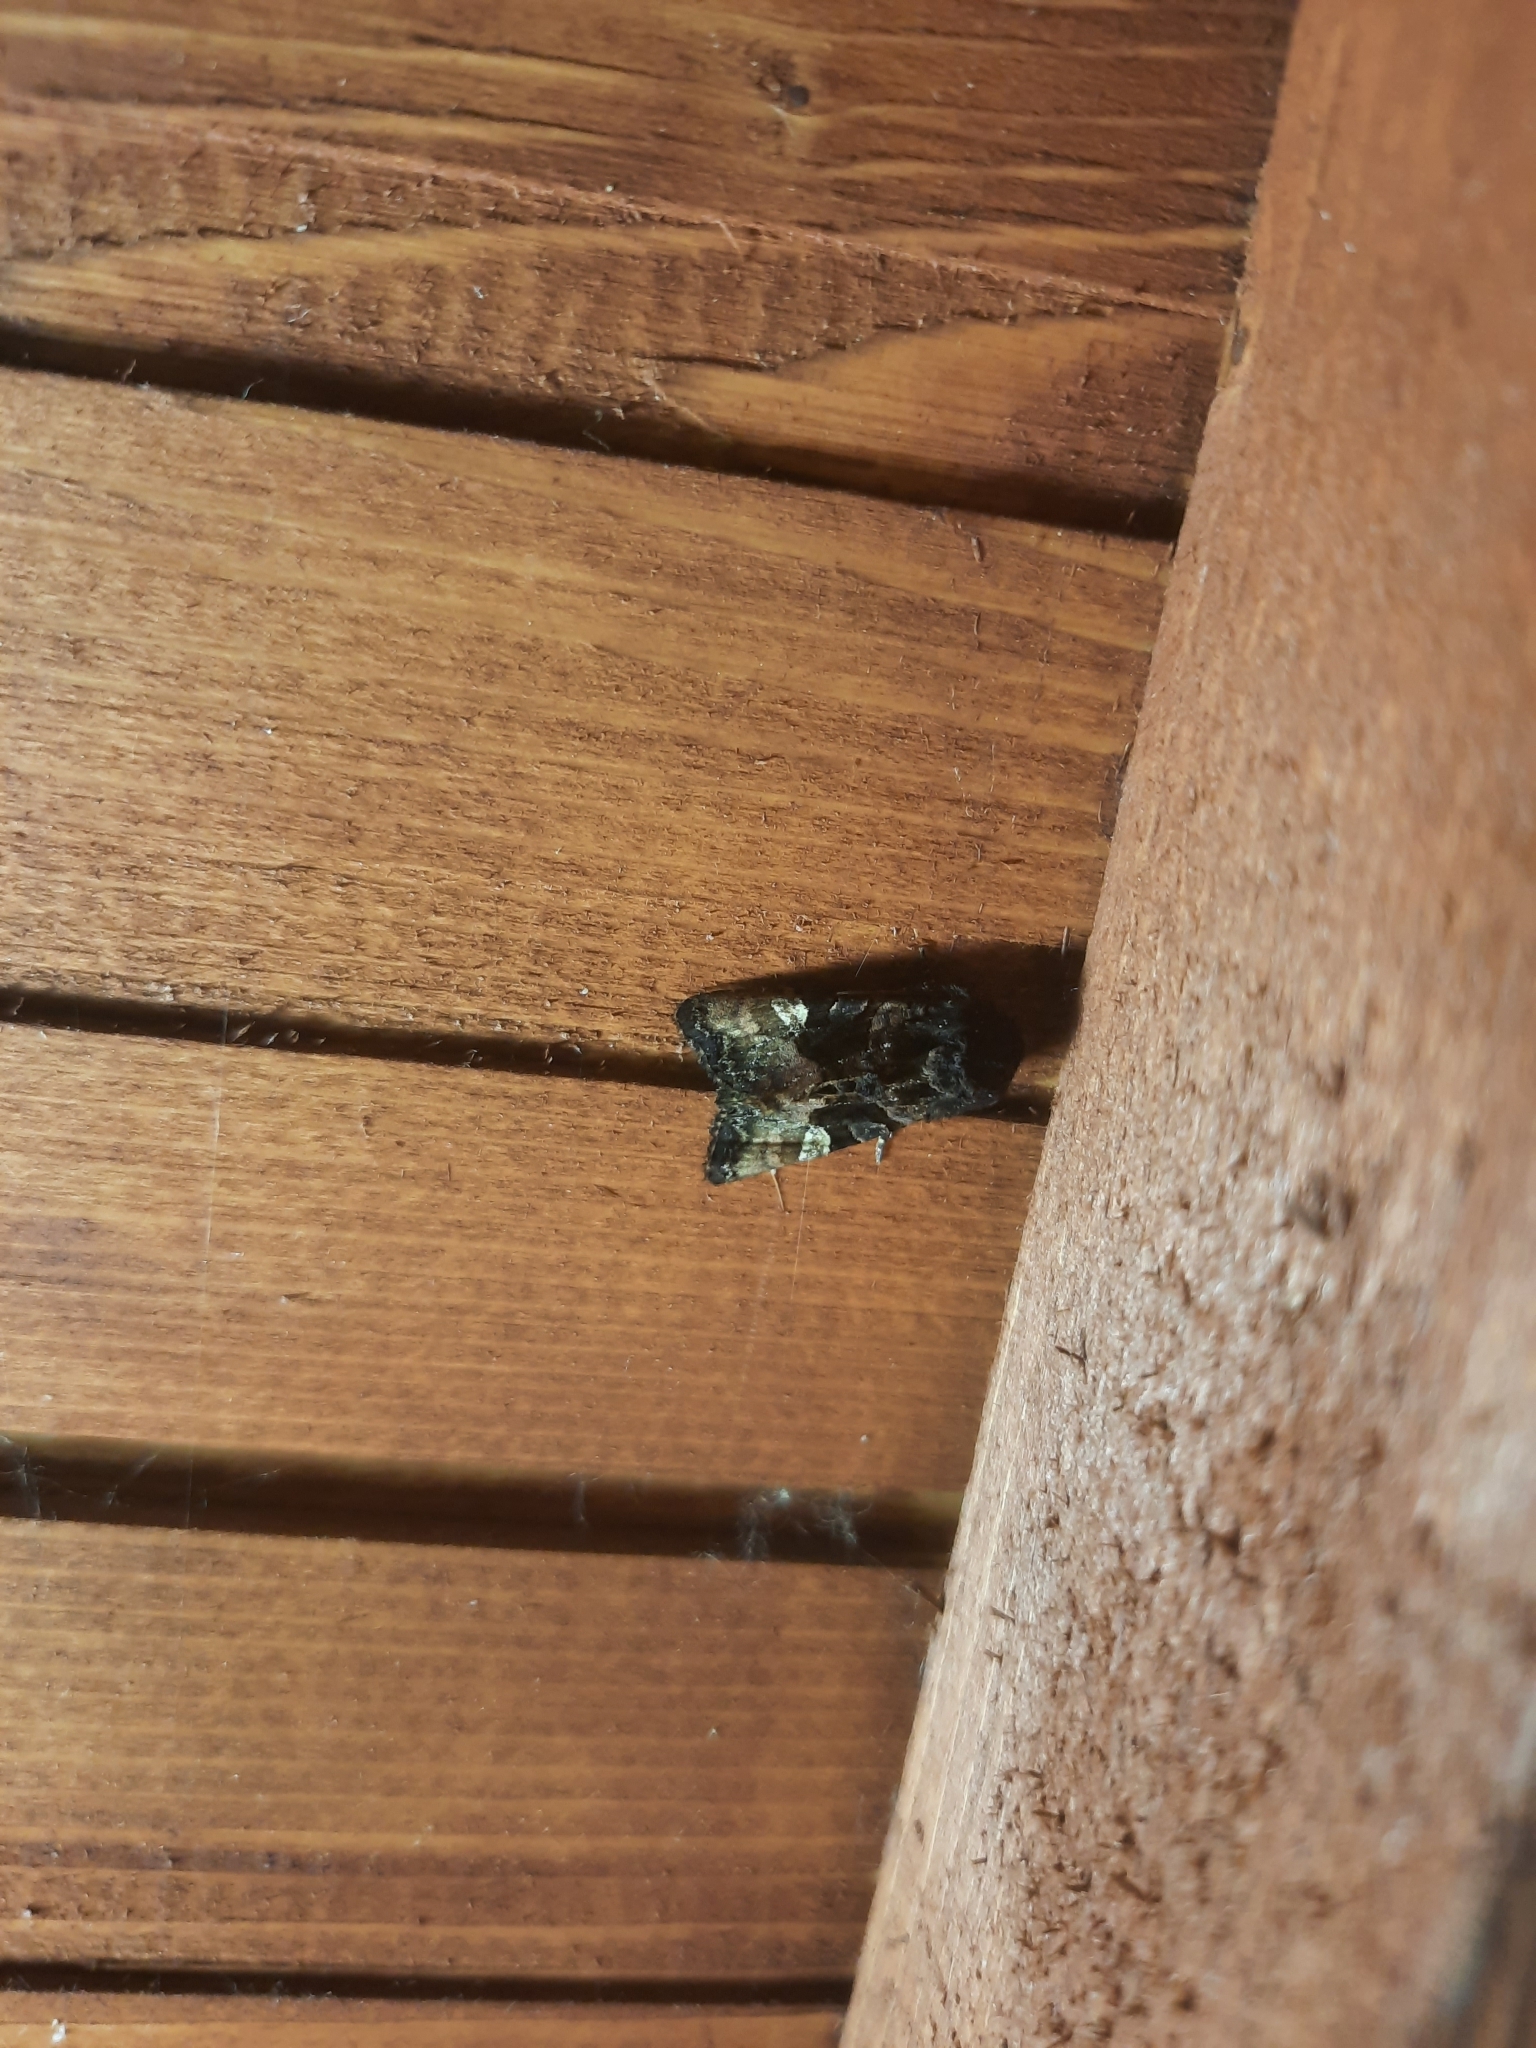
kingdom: Animalia
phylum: Arthropoda
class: Insecta
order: Lepidoptera
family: Noctuidae
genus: Euplexia
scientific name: Euplexia lucipara
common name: Small angle shades
